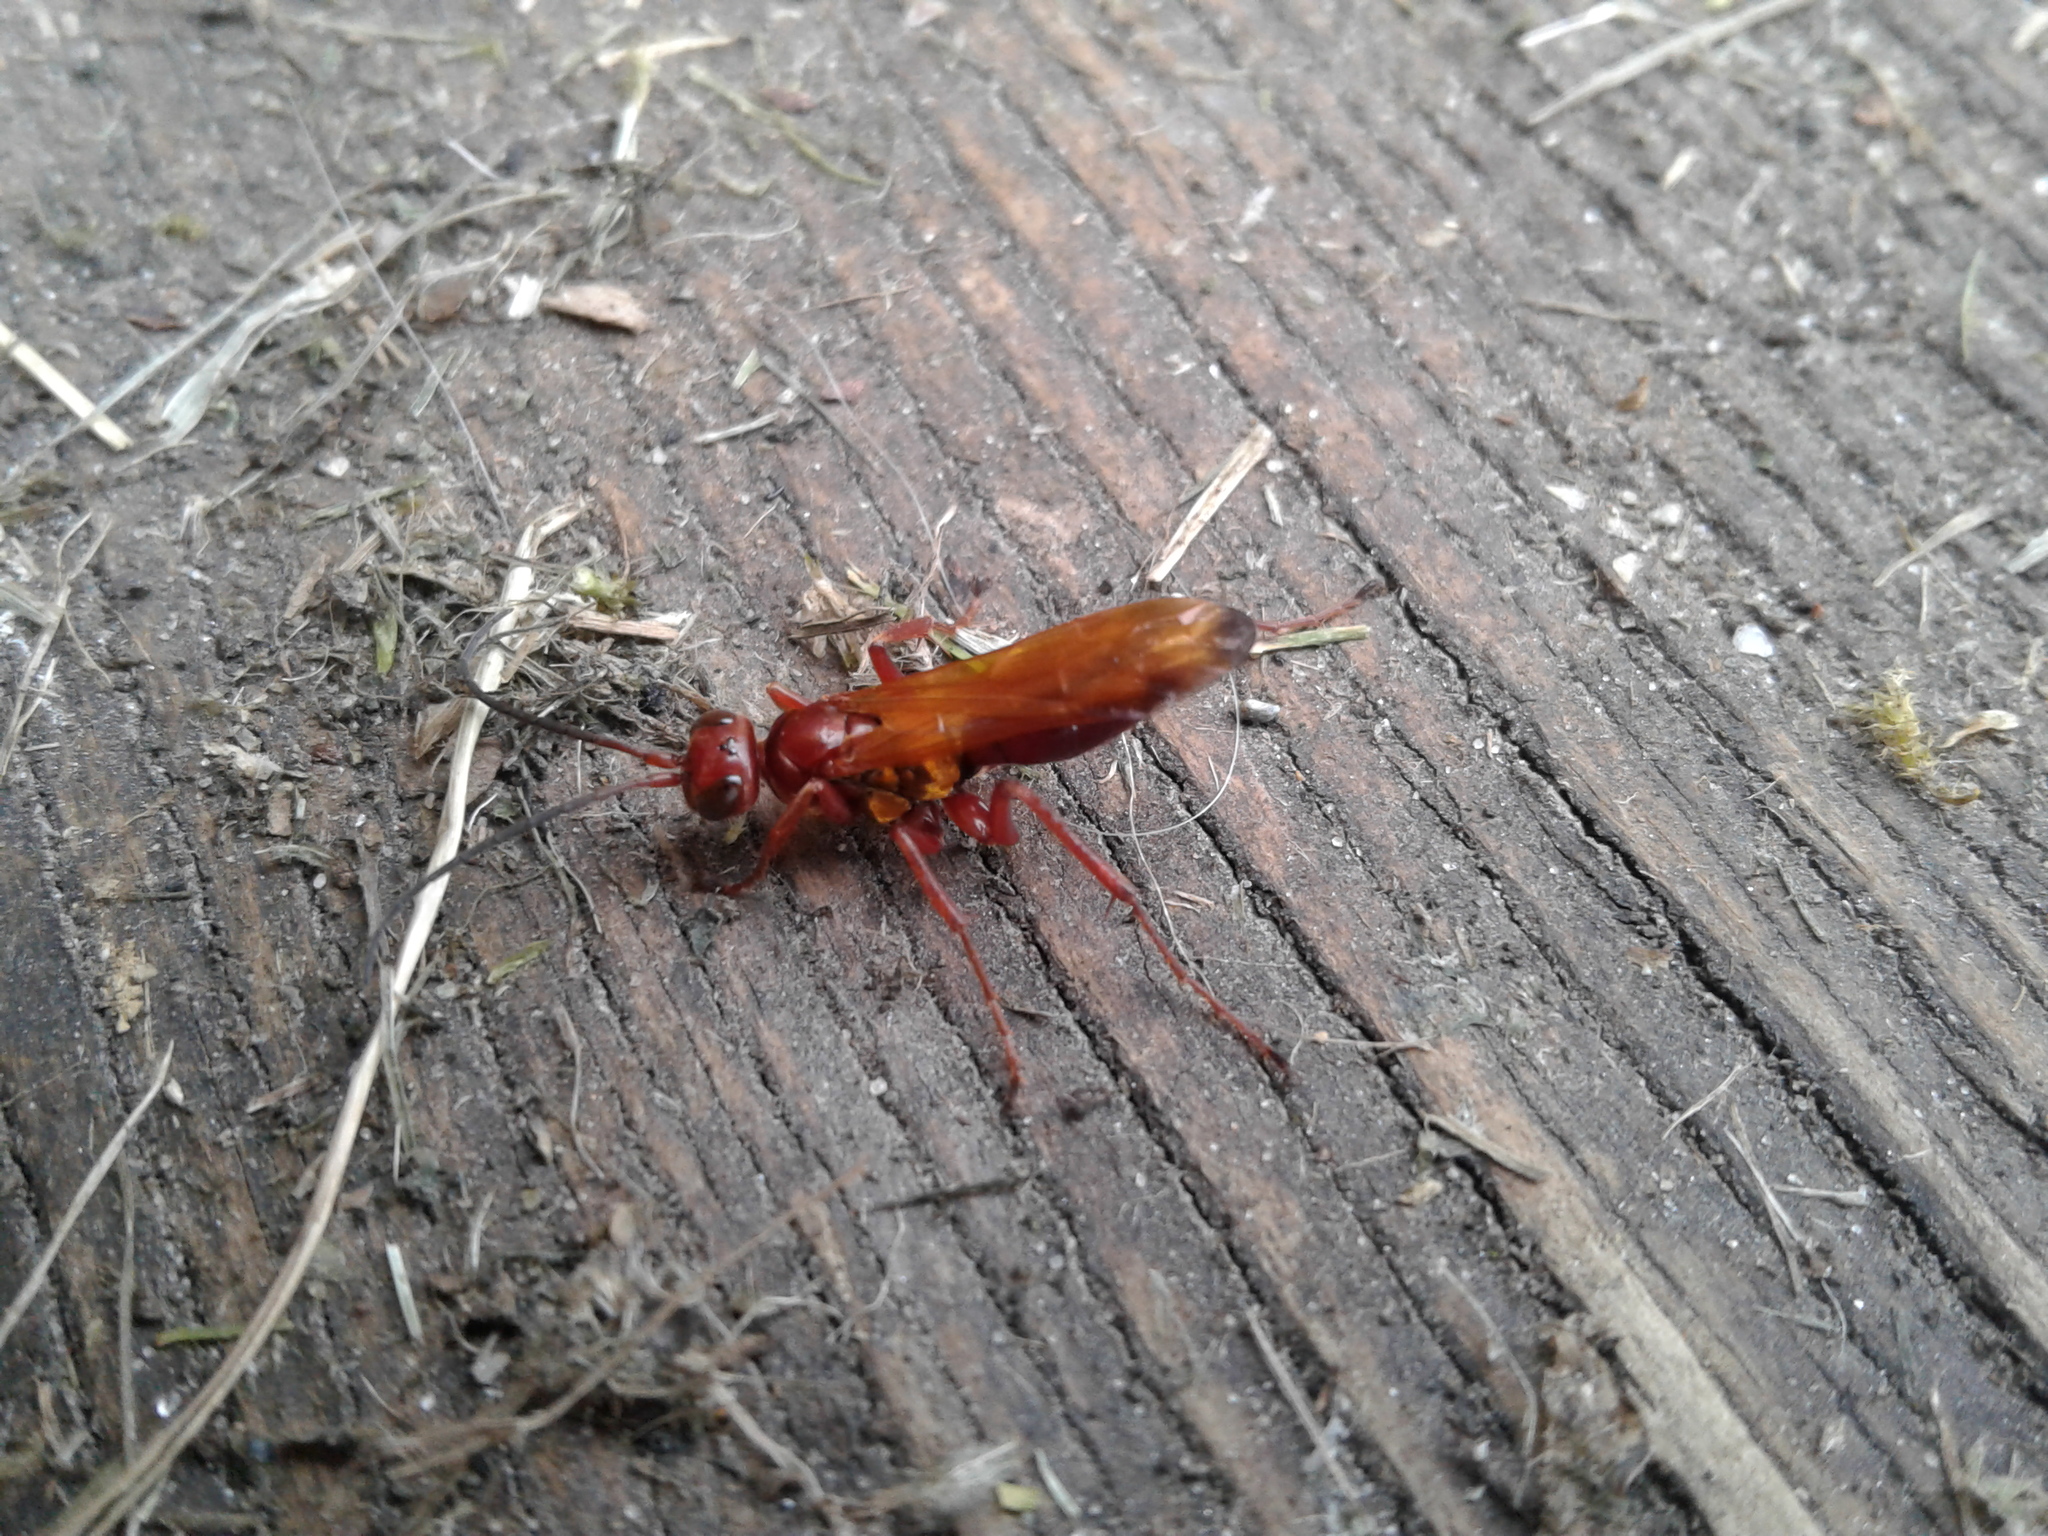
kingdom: Animalia
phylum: Arthropoda
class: Insecta
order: Hymenoptera
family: Pompilidae
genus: Sphictostethus
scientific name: Sphictostethus nitidus
